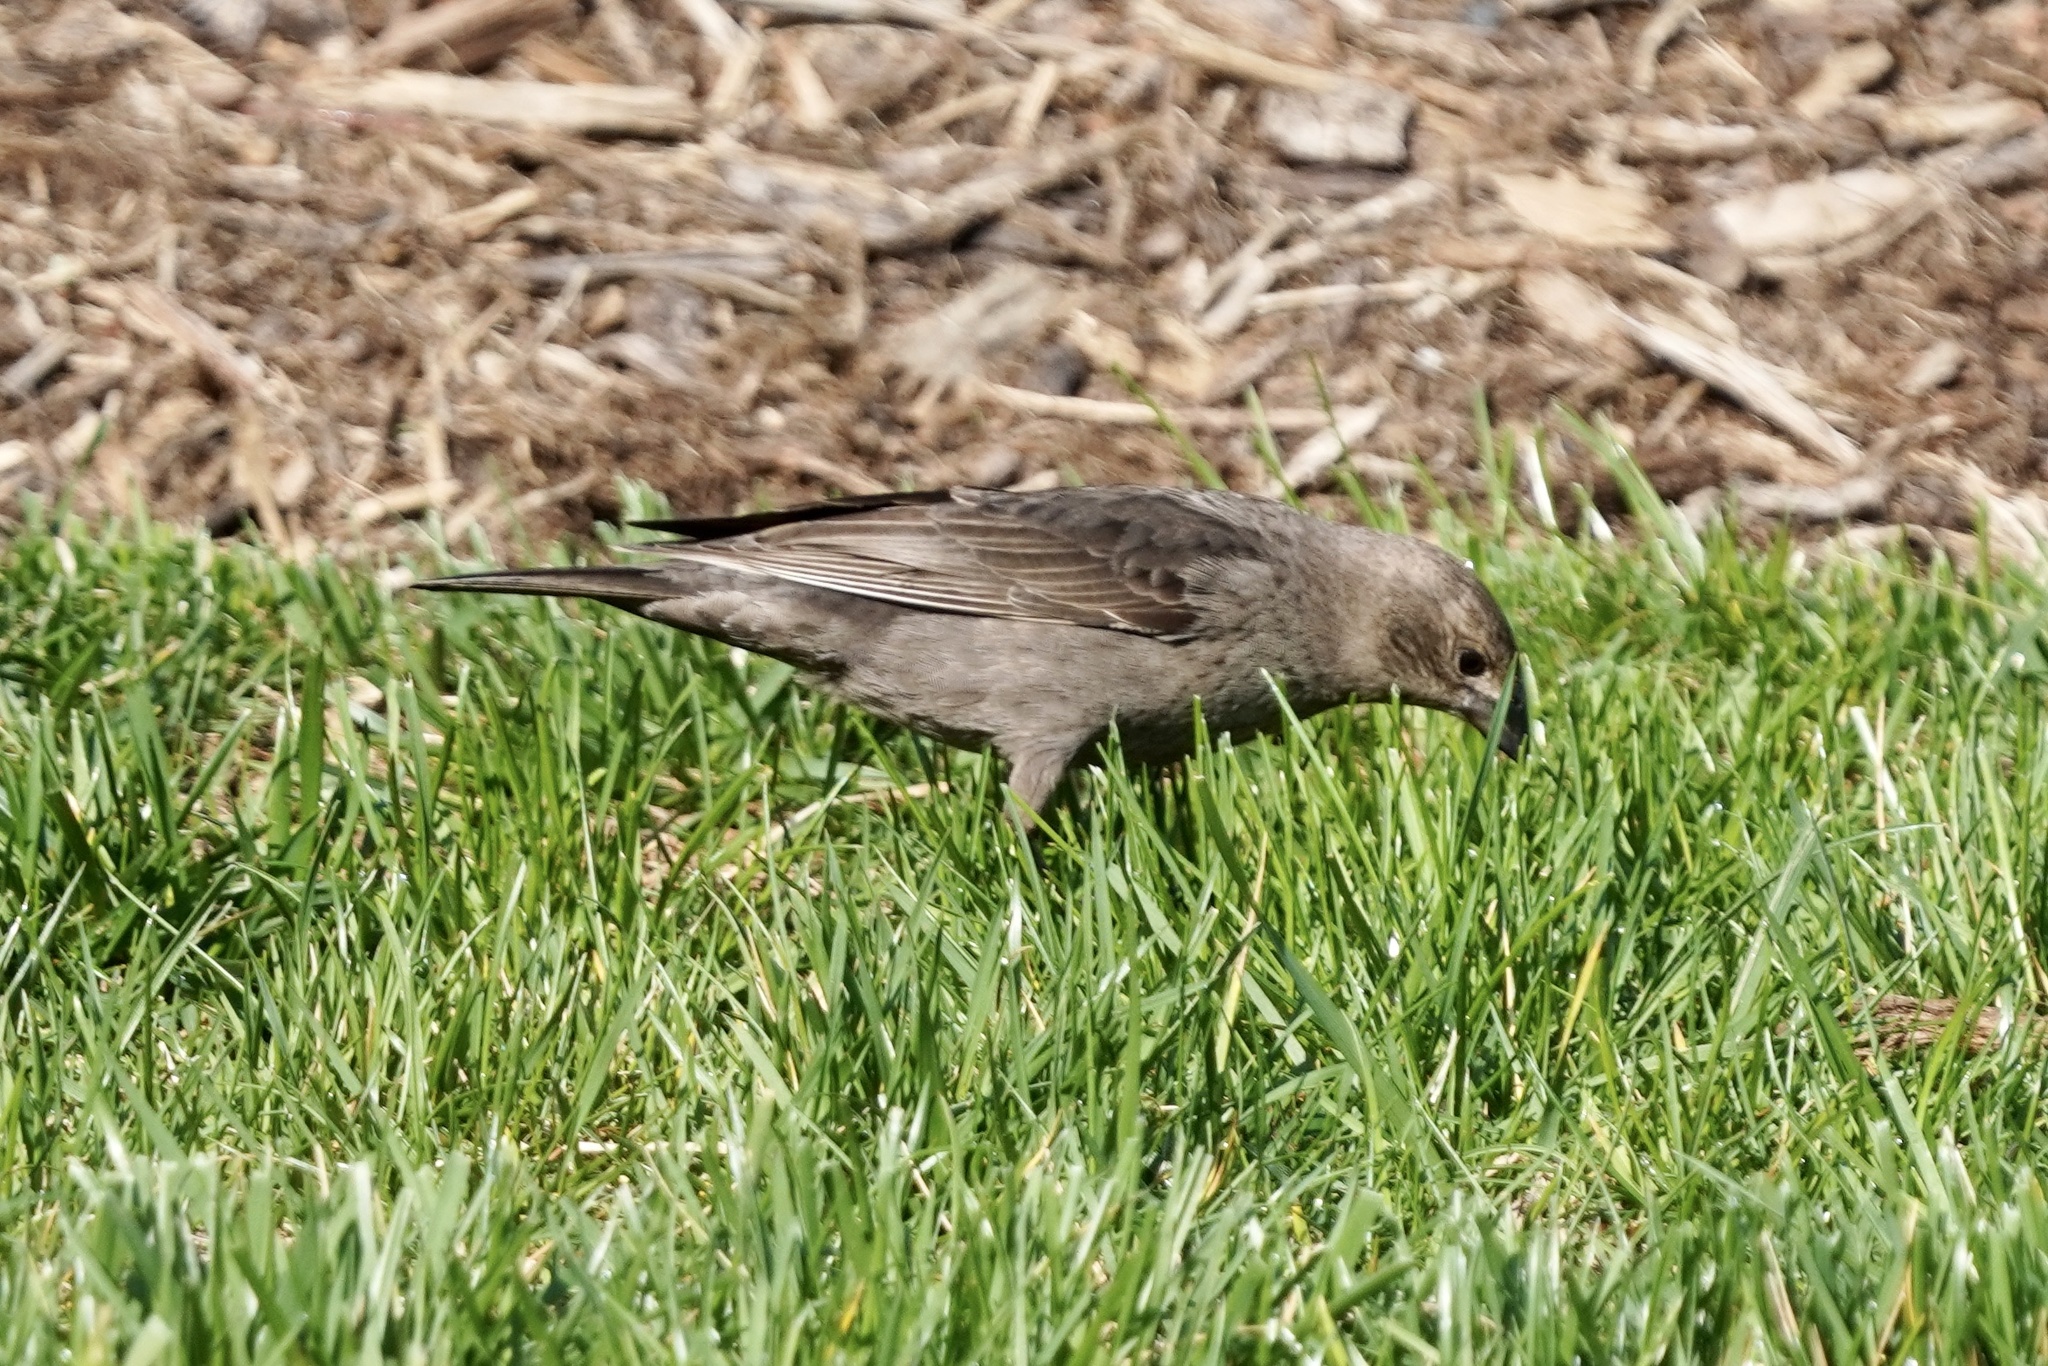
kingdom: Animalia
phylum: Chordata
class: Aves
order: Passeriformes
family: Icteridae
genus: Molothrus
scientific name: Molothrus ater
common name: Brown-headed cowbird
